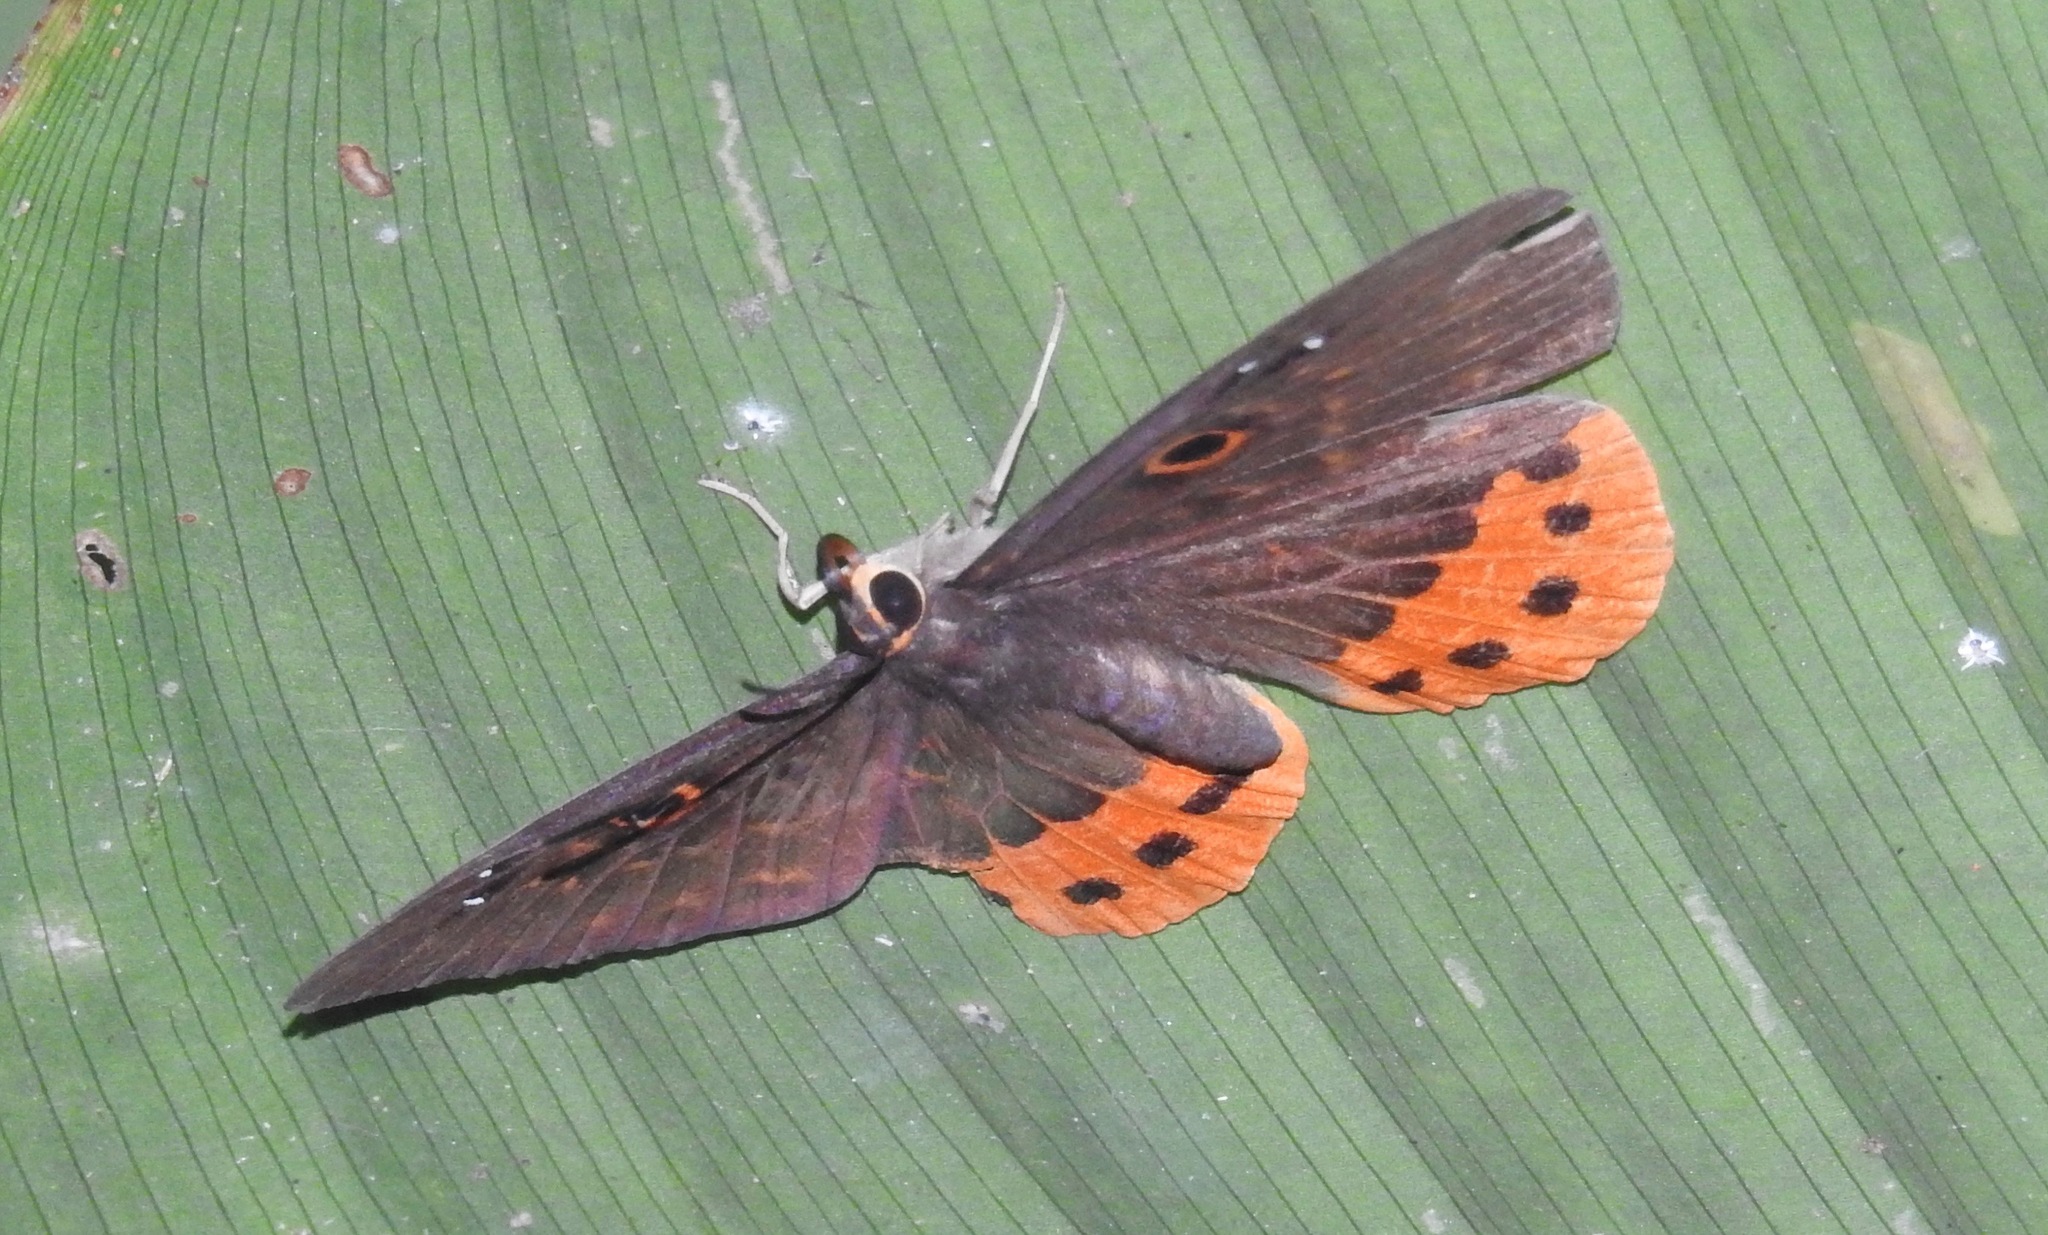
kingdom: Animalia
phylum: Cnidaria
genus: Eurybia
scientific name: Eurybia donna
